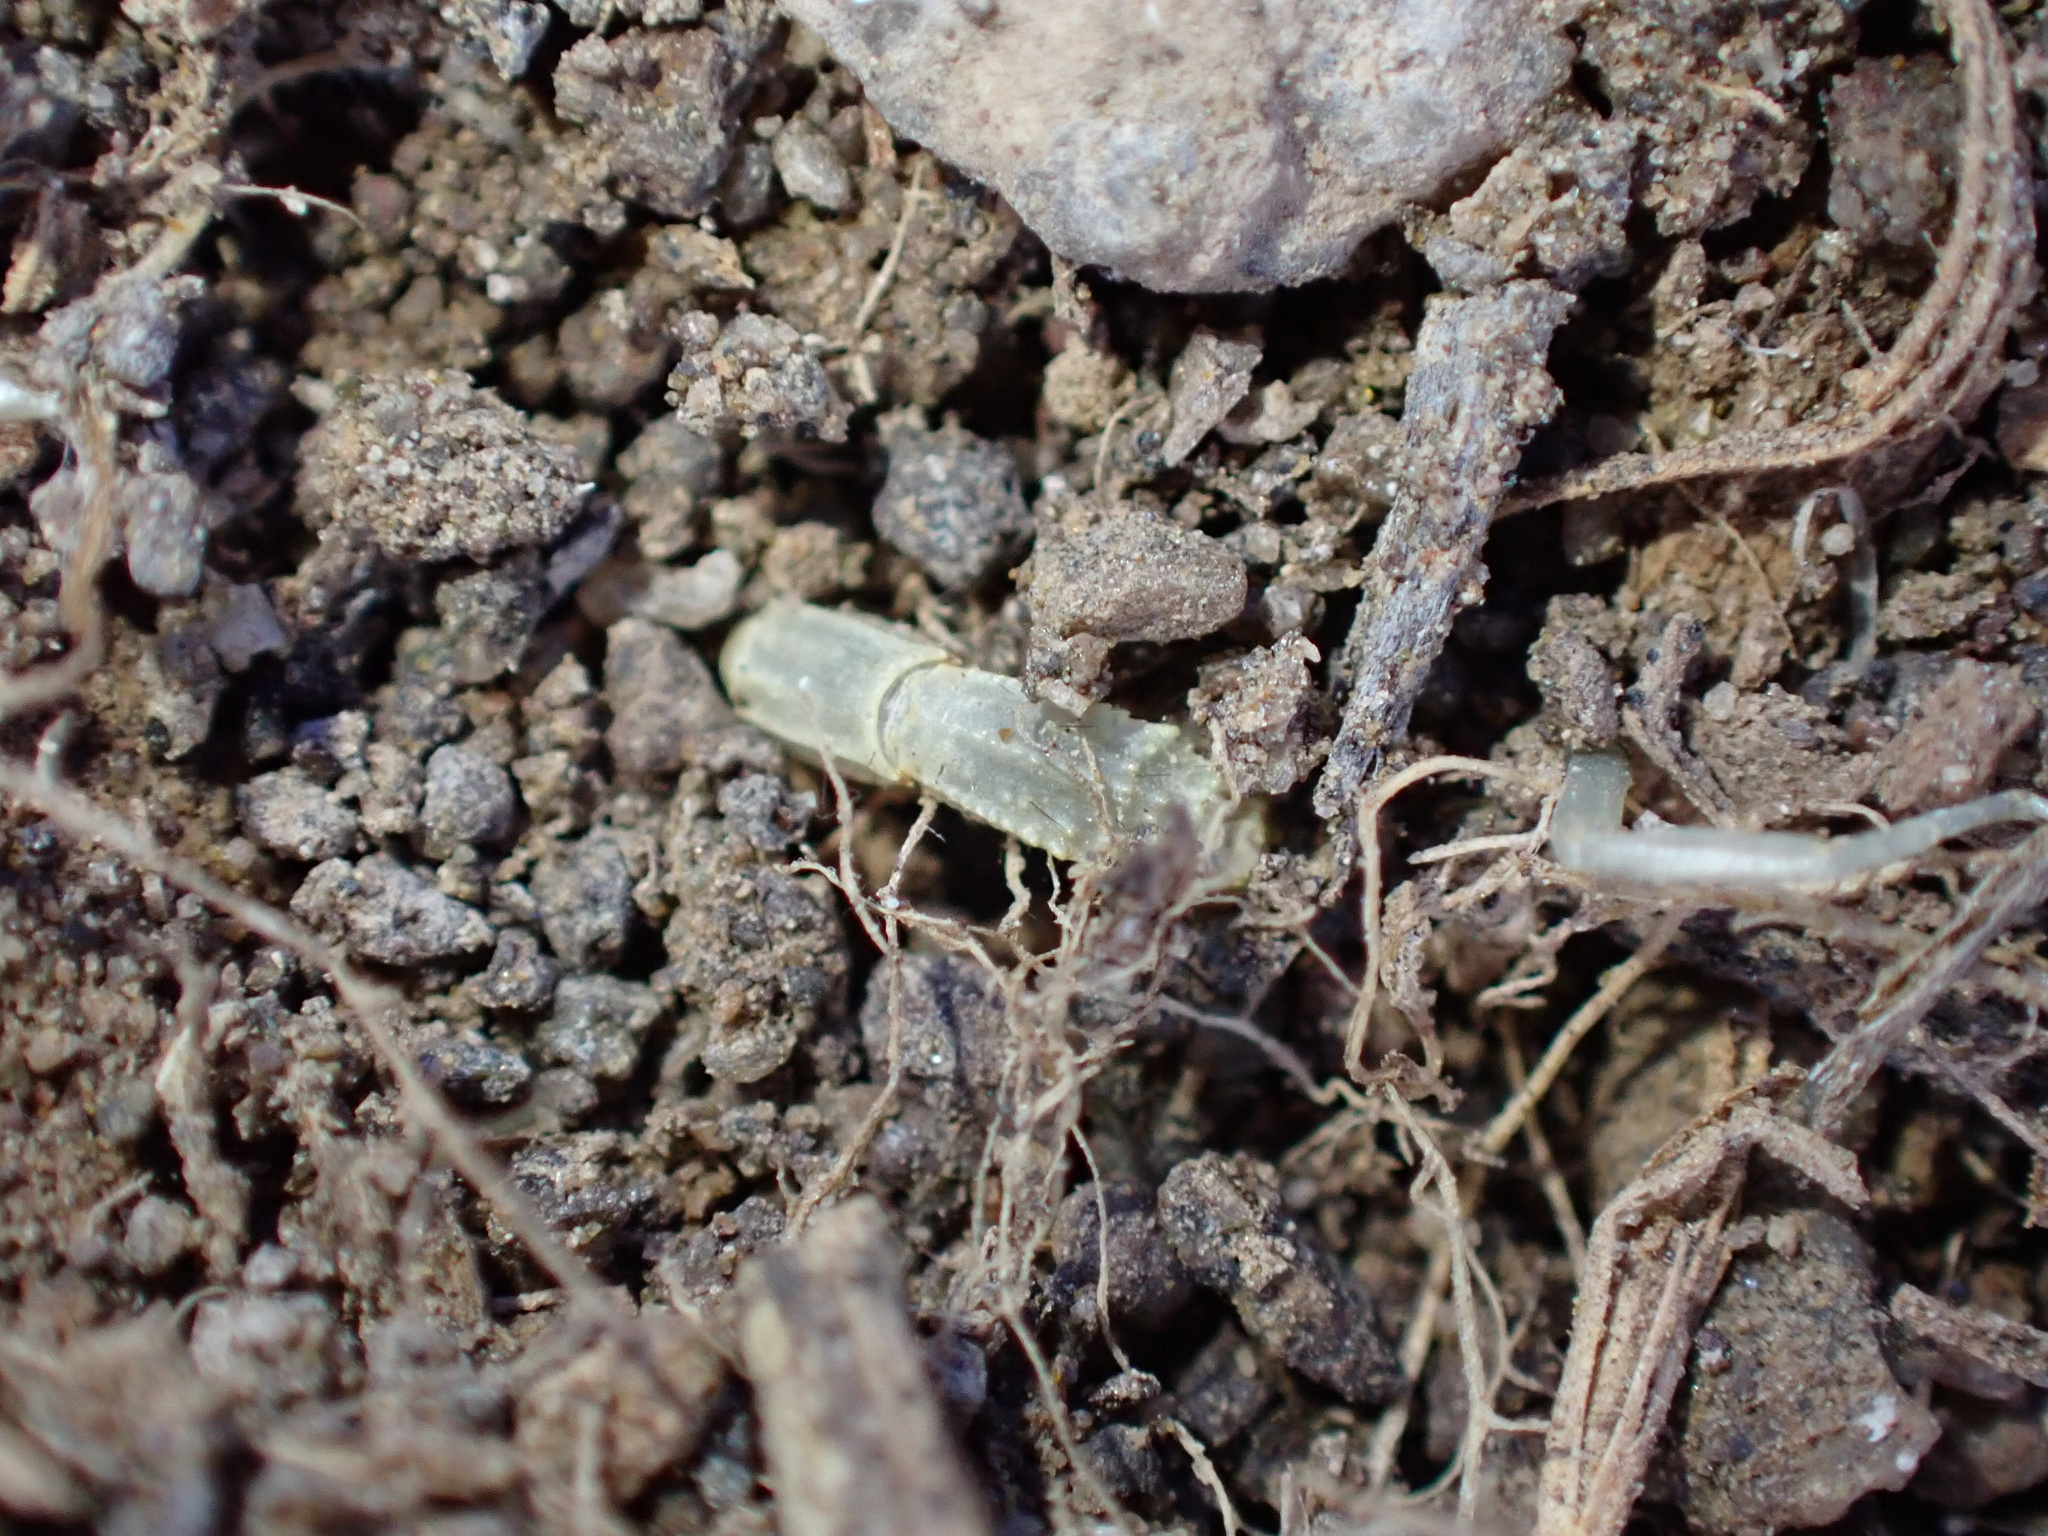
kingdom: Animalia
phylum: Arthropoda
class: Arachnida
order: Scorpiones
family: Buthidae
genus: Mesobuthus
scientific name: Mesobuthus afghanus
